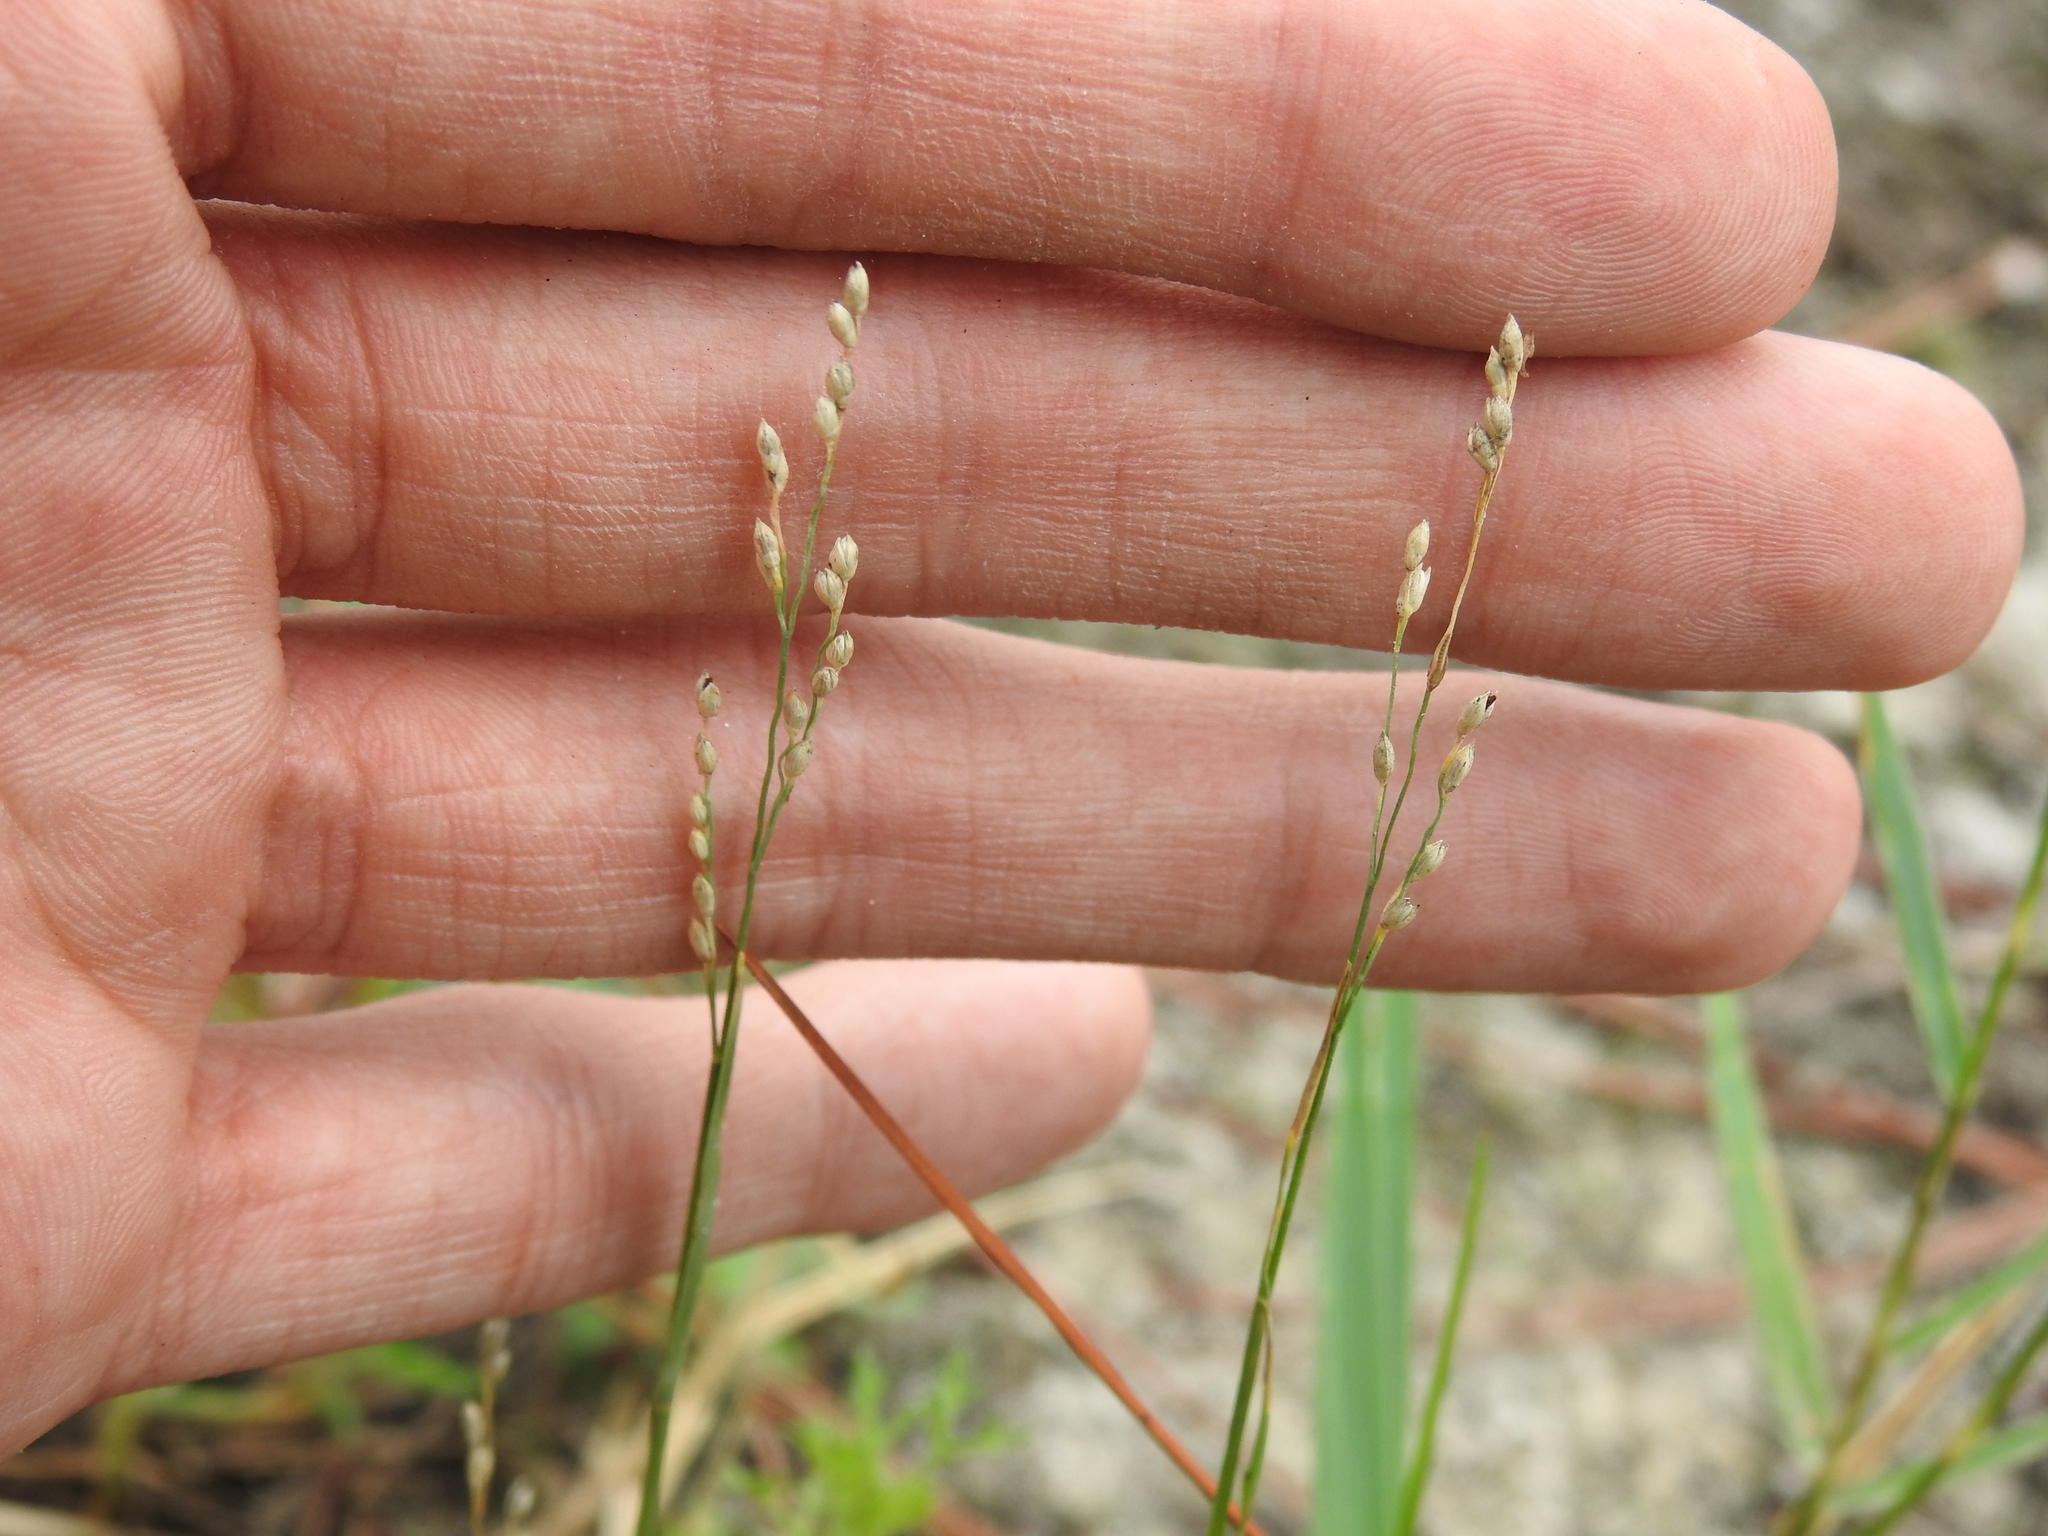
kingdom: Plantae
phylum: Tracheophyta
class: Liliopsida
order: Poales
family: Poaceae
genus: Panicum
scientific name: Panicum repens
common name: Torpedo grass
